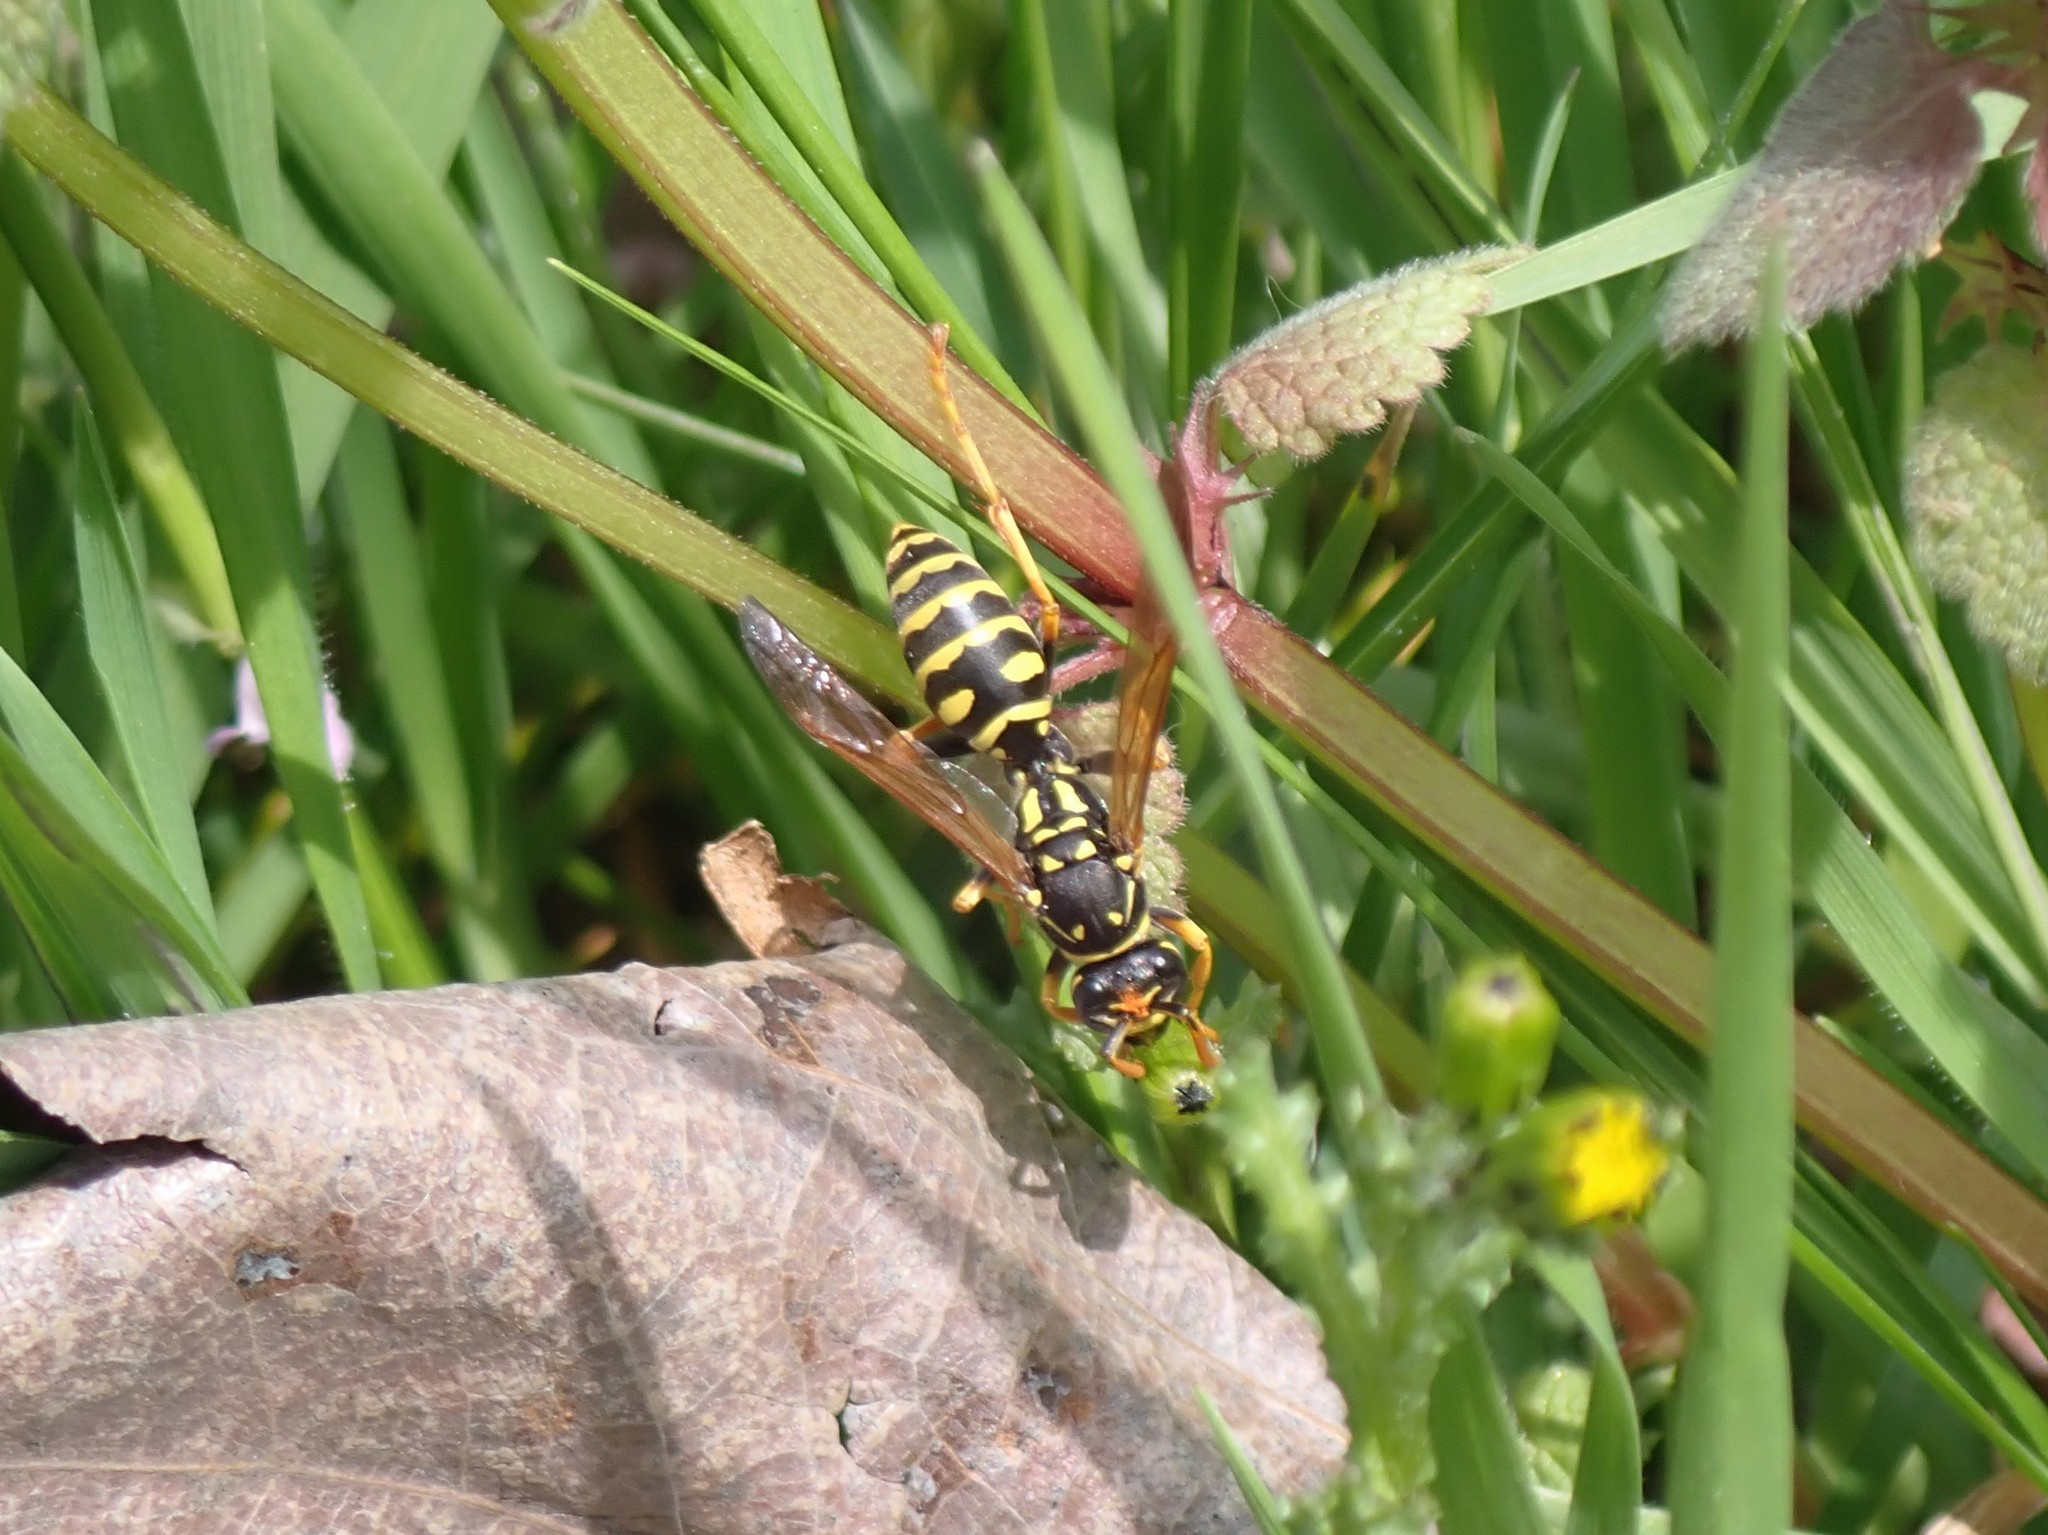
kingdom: Animalia
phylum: Arthropoda
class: Insecta
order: Hymenoptera
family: Eumenidae
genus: Polistes
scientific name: Polistes dominula
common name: Paper wasp
